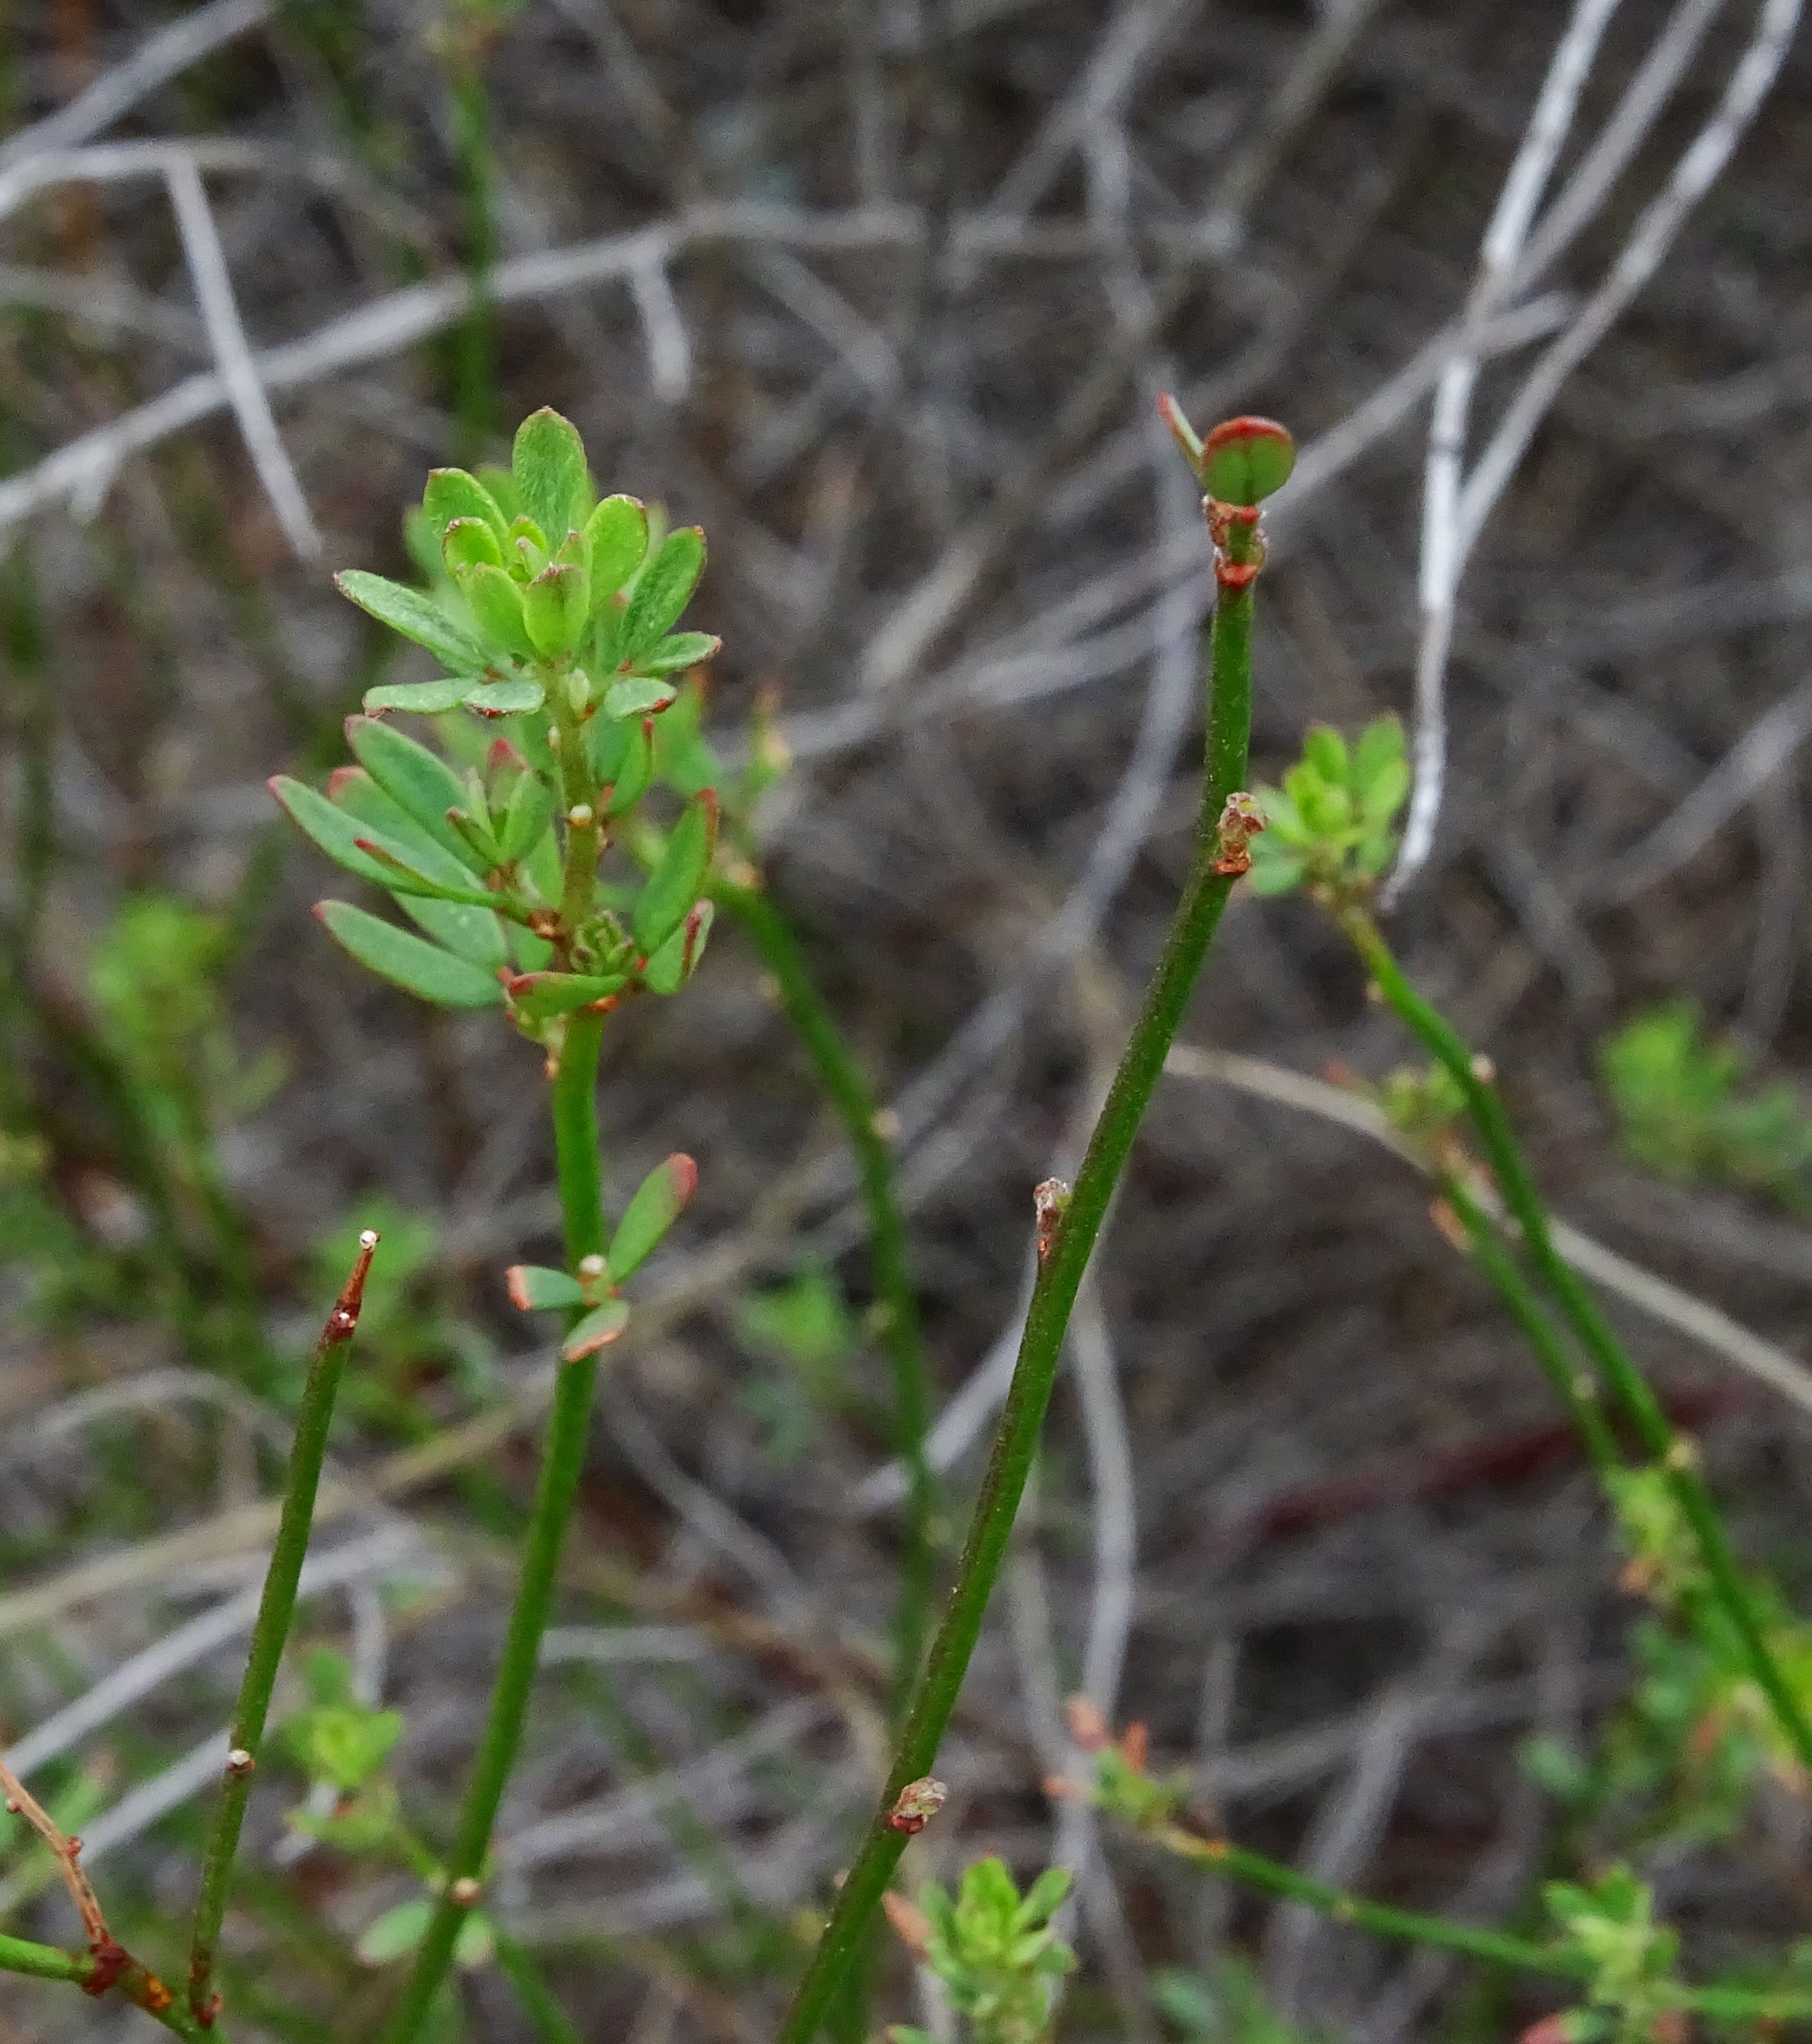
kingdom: Plantae
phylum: Tracheophyta
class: Magnoliopsida
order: Fabales
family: Fabaceae
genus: Acmispon
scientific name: Acmispon glaber
